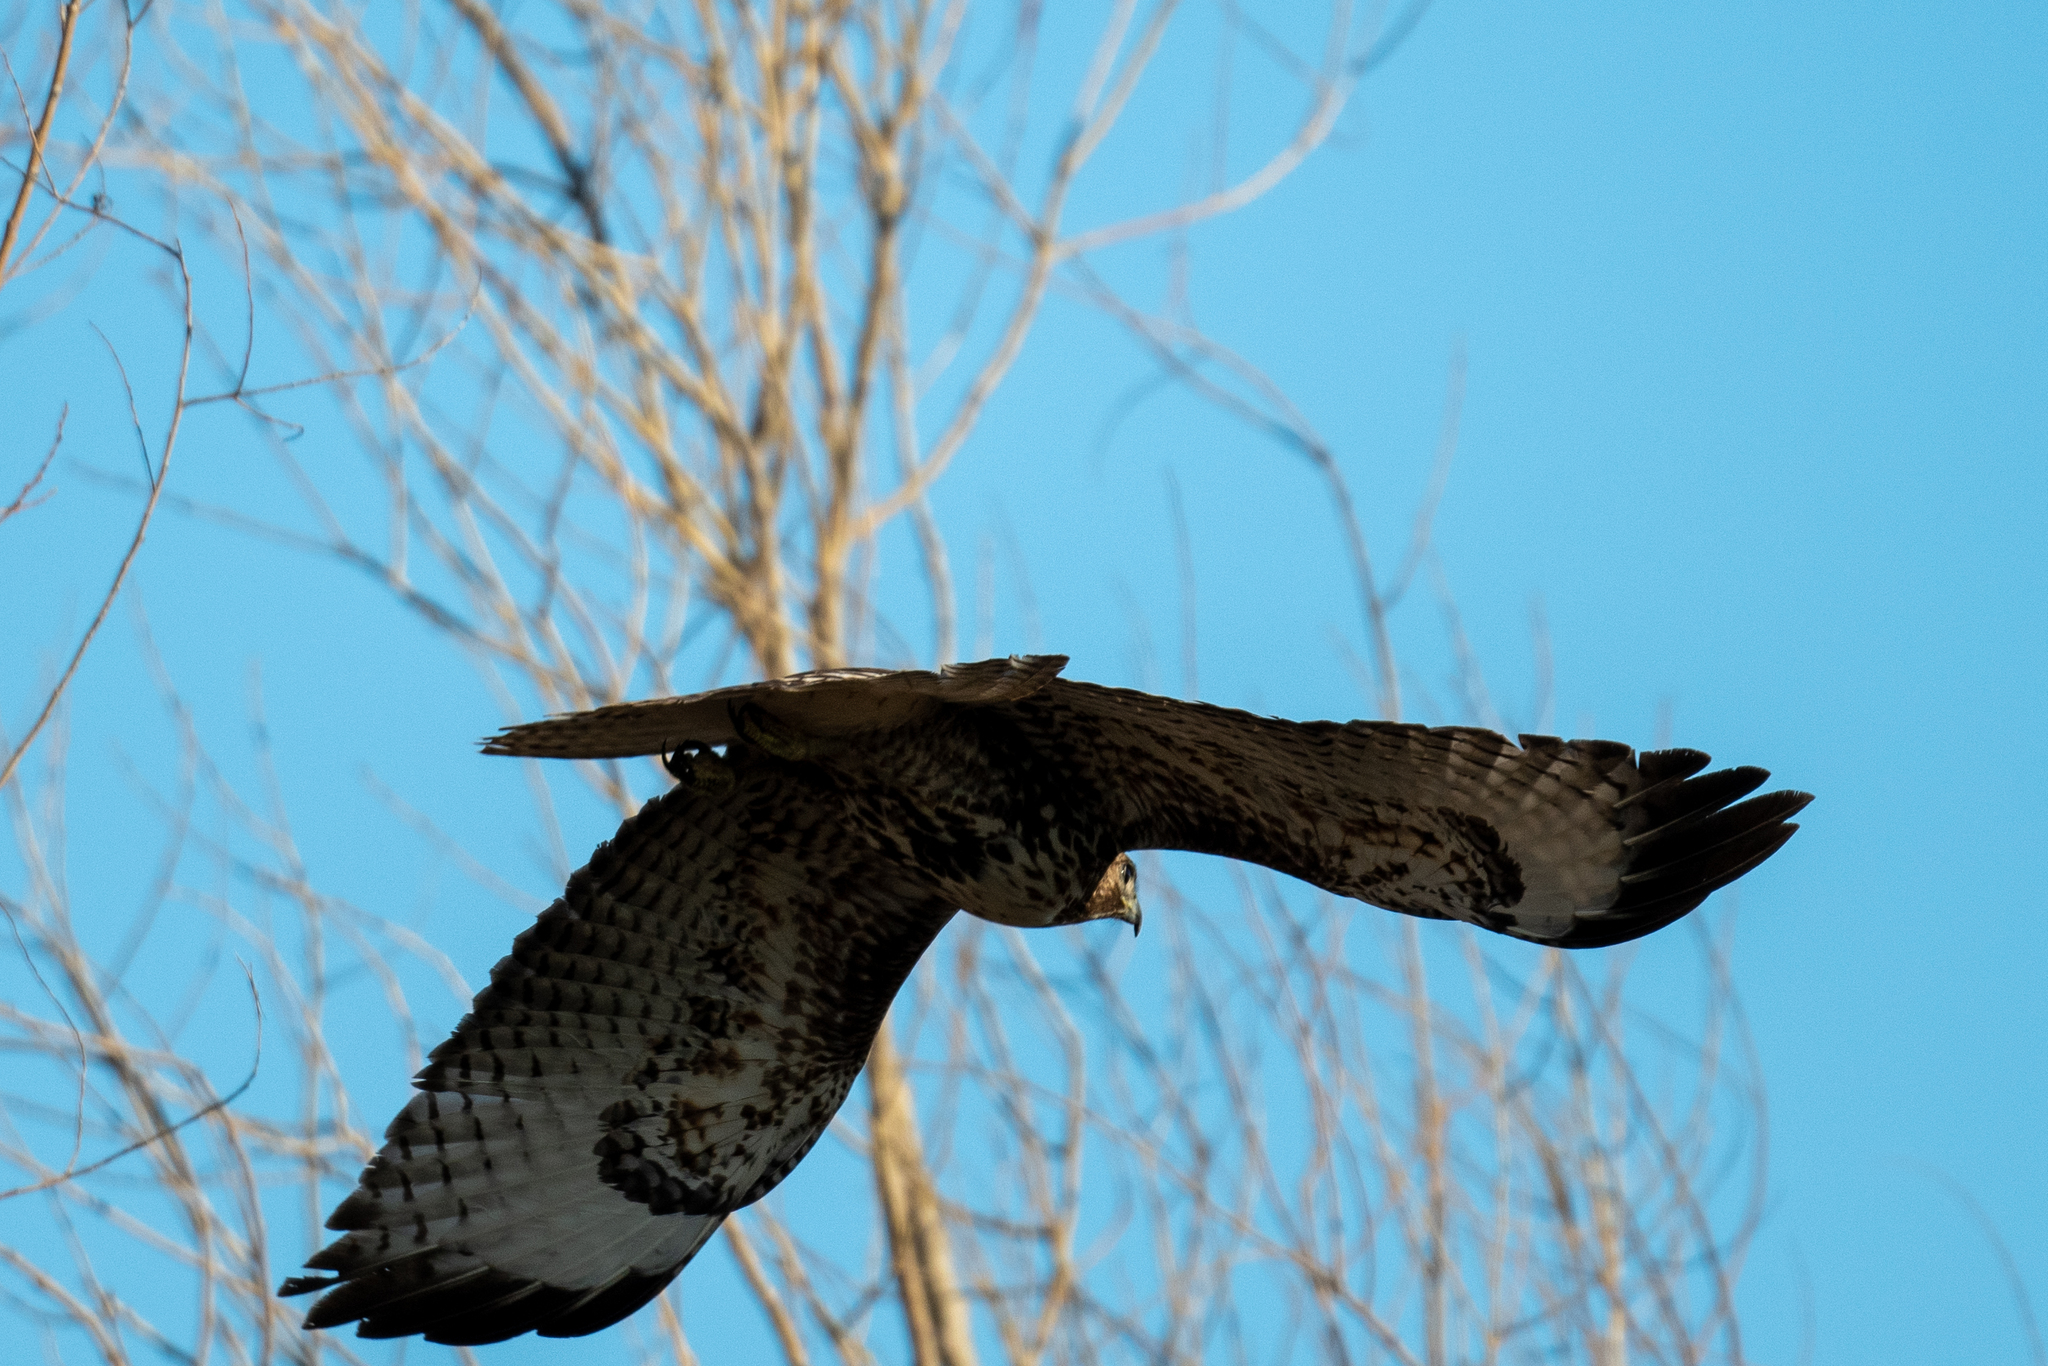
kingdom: Animalia
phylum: Chordata
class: Aves
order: Accipitriformes
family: Accipitridae
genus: Buteo
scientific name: Buteo jamaicensis
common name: Red-tailed hawk
